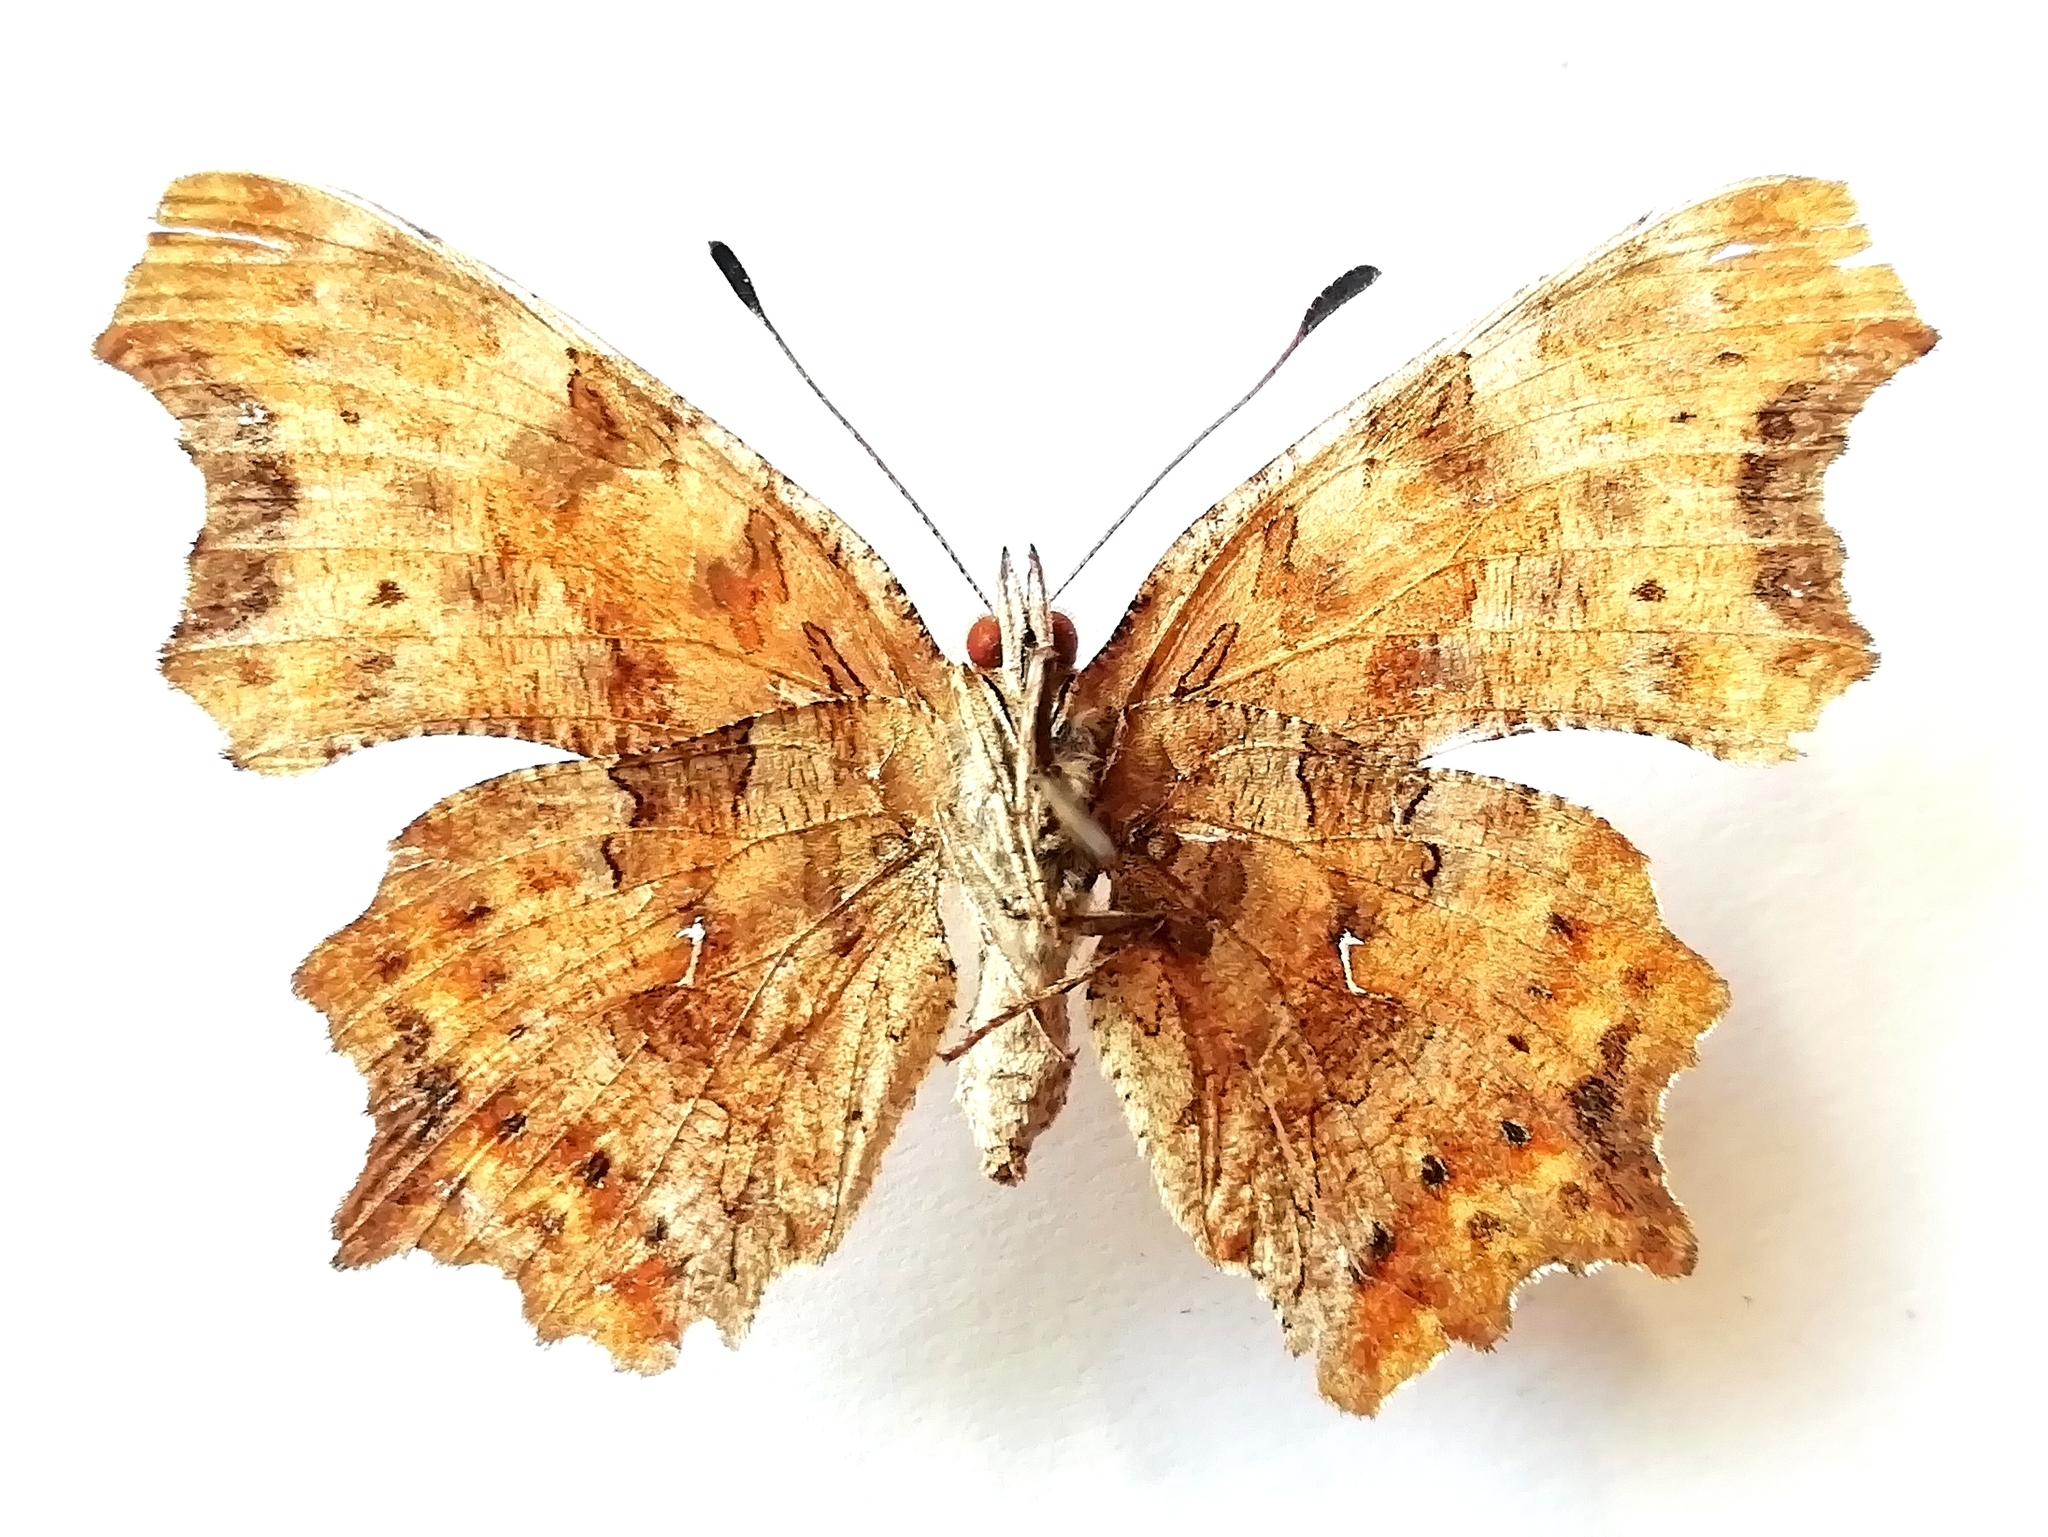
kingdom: Animalia
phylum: Arthropoda
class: Insecta
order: Lepidoptera
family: Nymphalidae
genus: Polygonia
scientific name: Polygonia c-album
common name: Comma
